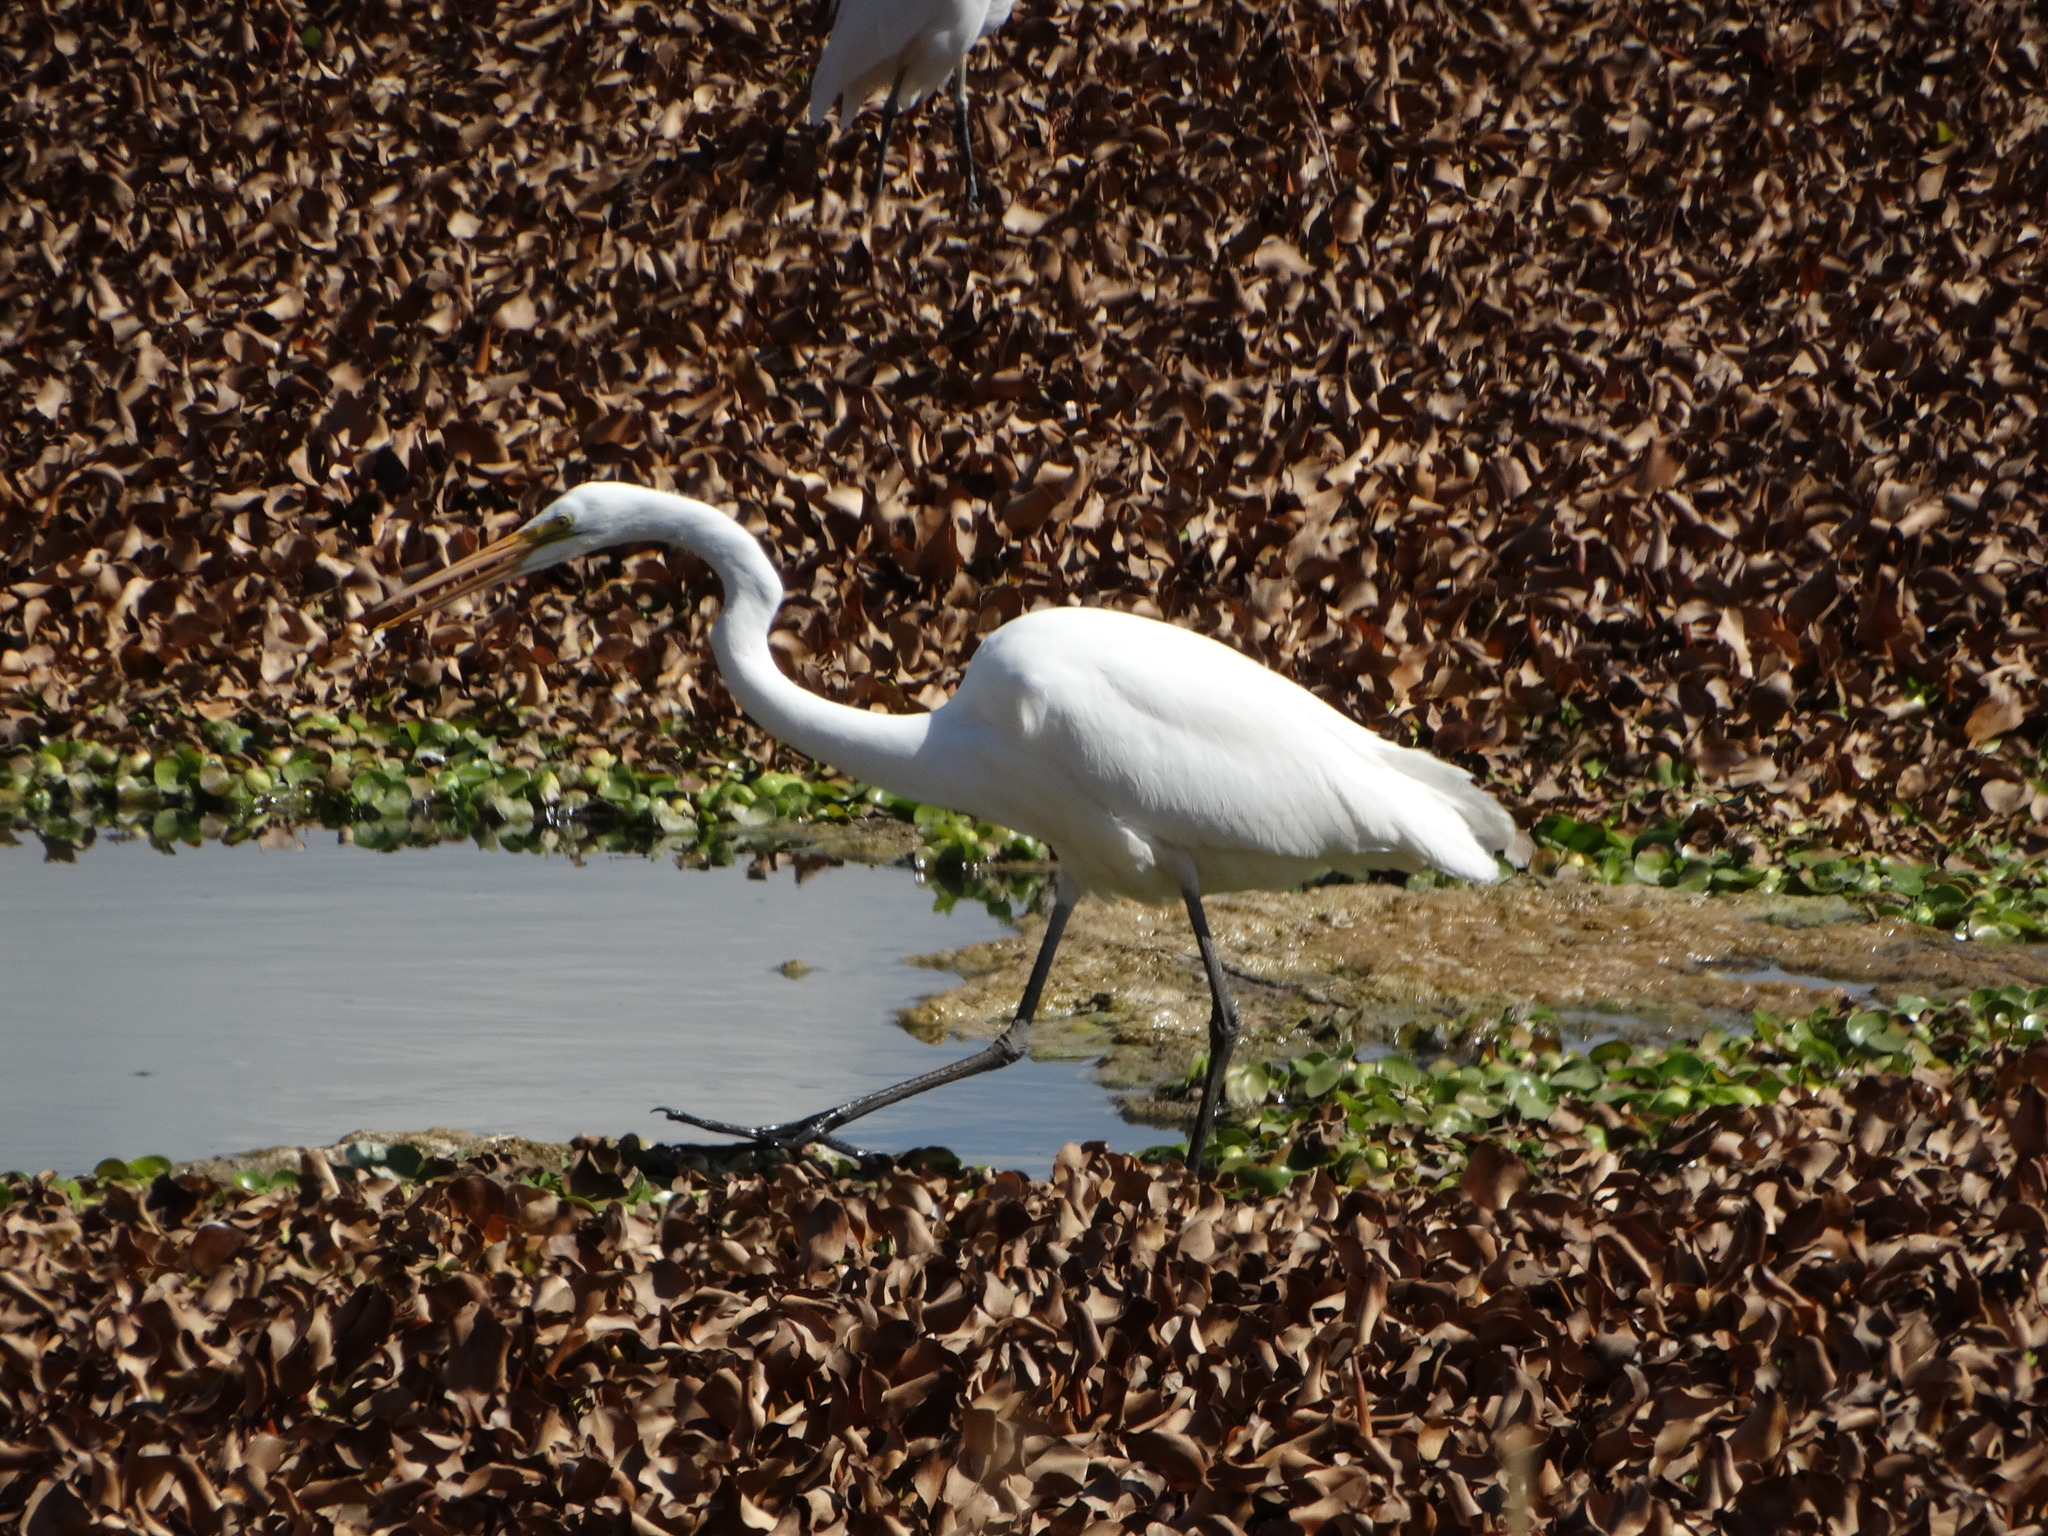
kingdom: Animalia
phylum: Chordata
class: Aves
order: Pelecaniformes
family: Ardeidae
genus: Ardea
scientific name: Ardea alba
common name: Great egret
